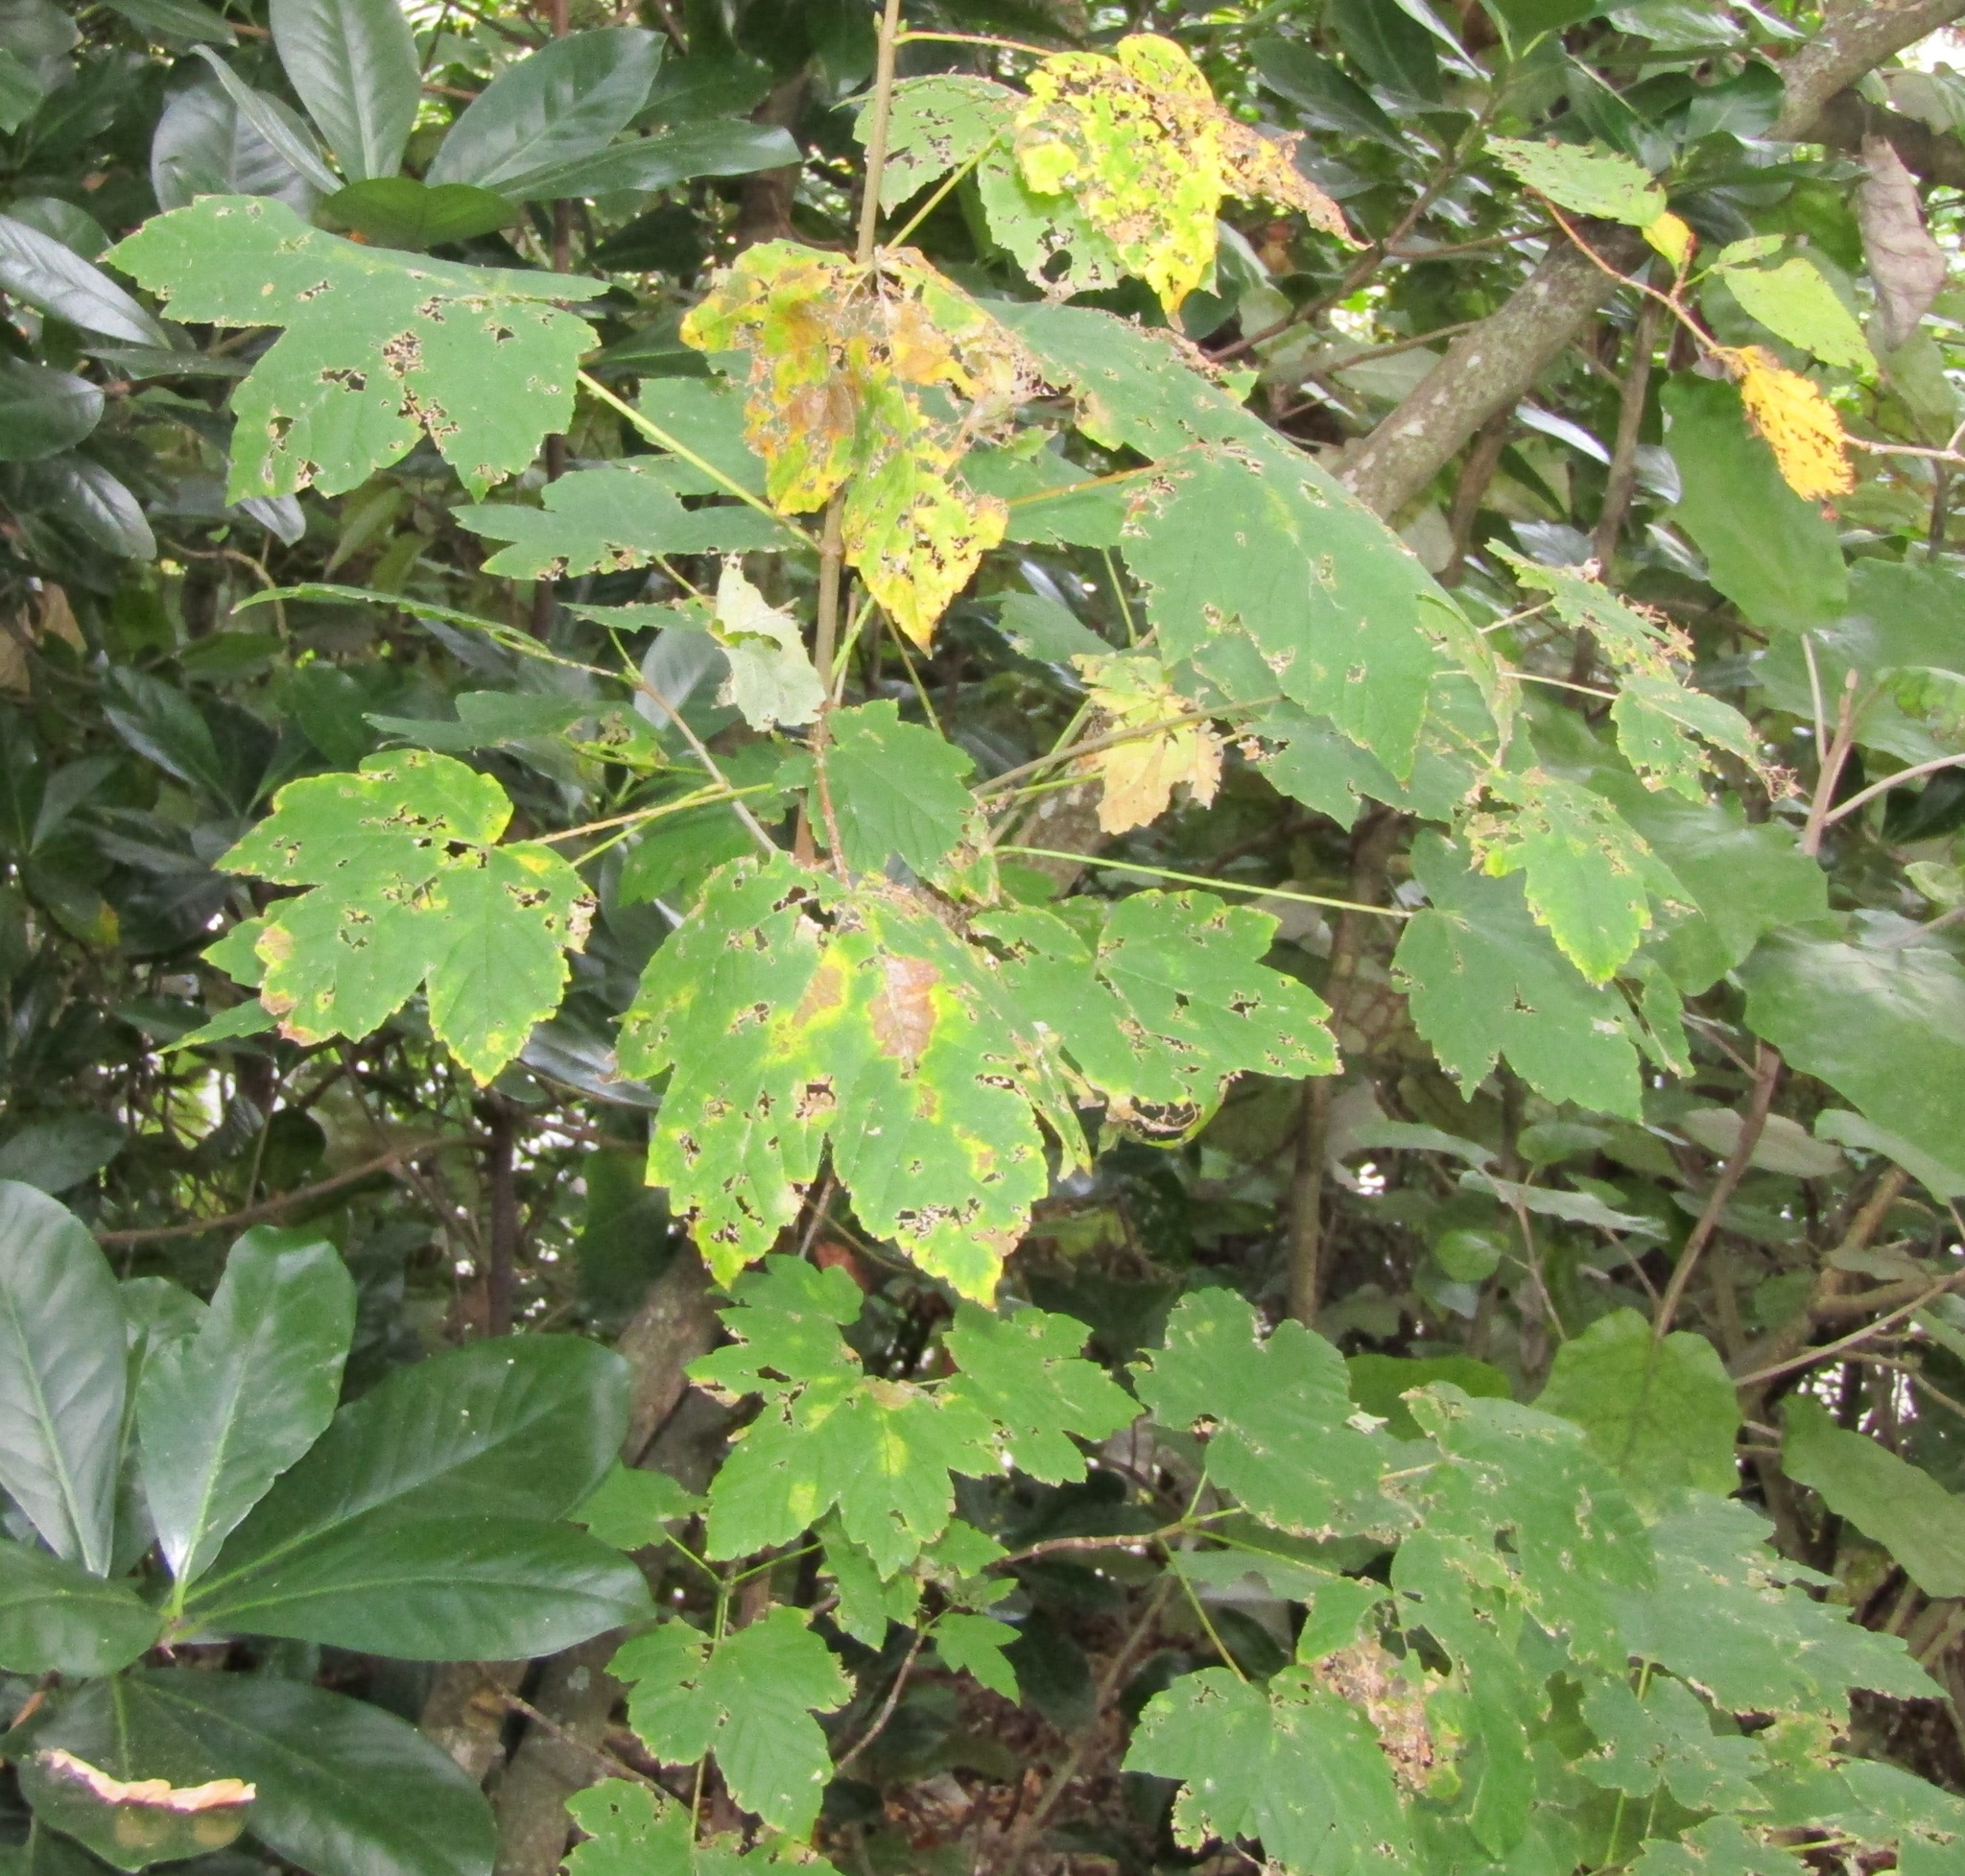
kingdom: Plantae
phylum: Tracheophyta
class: Magnoliopsida
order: Sapindales
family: Sapindaceae
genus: Acer
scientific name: Acer pseudoplatanus
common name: Sycamore
